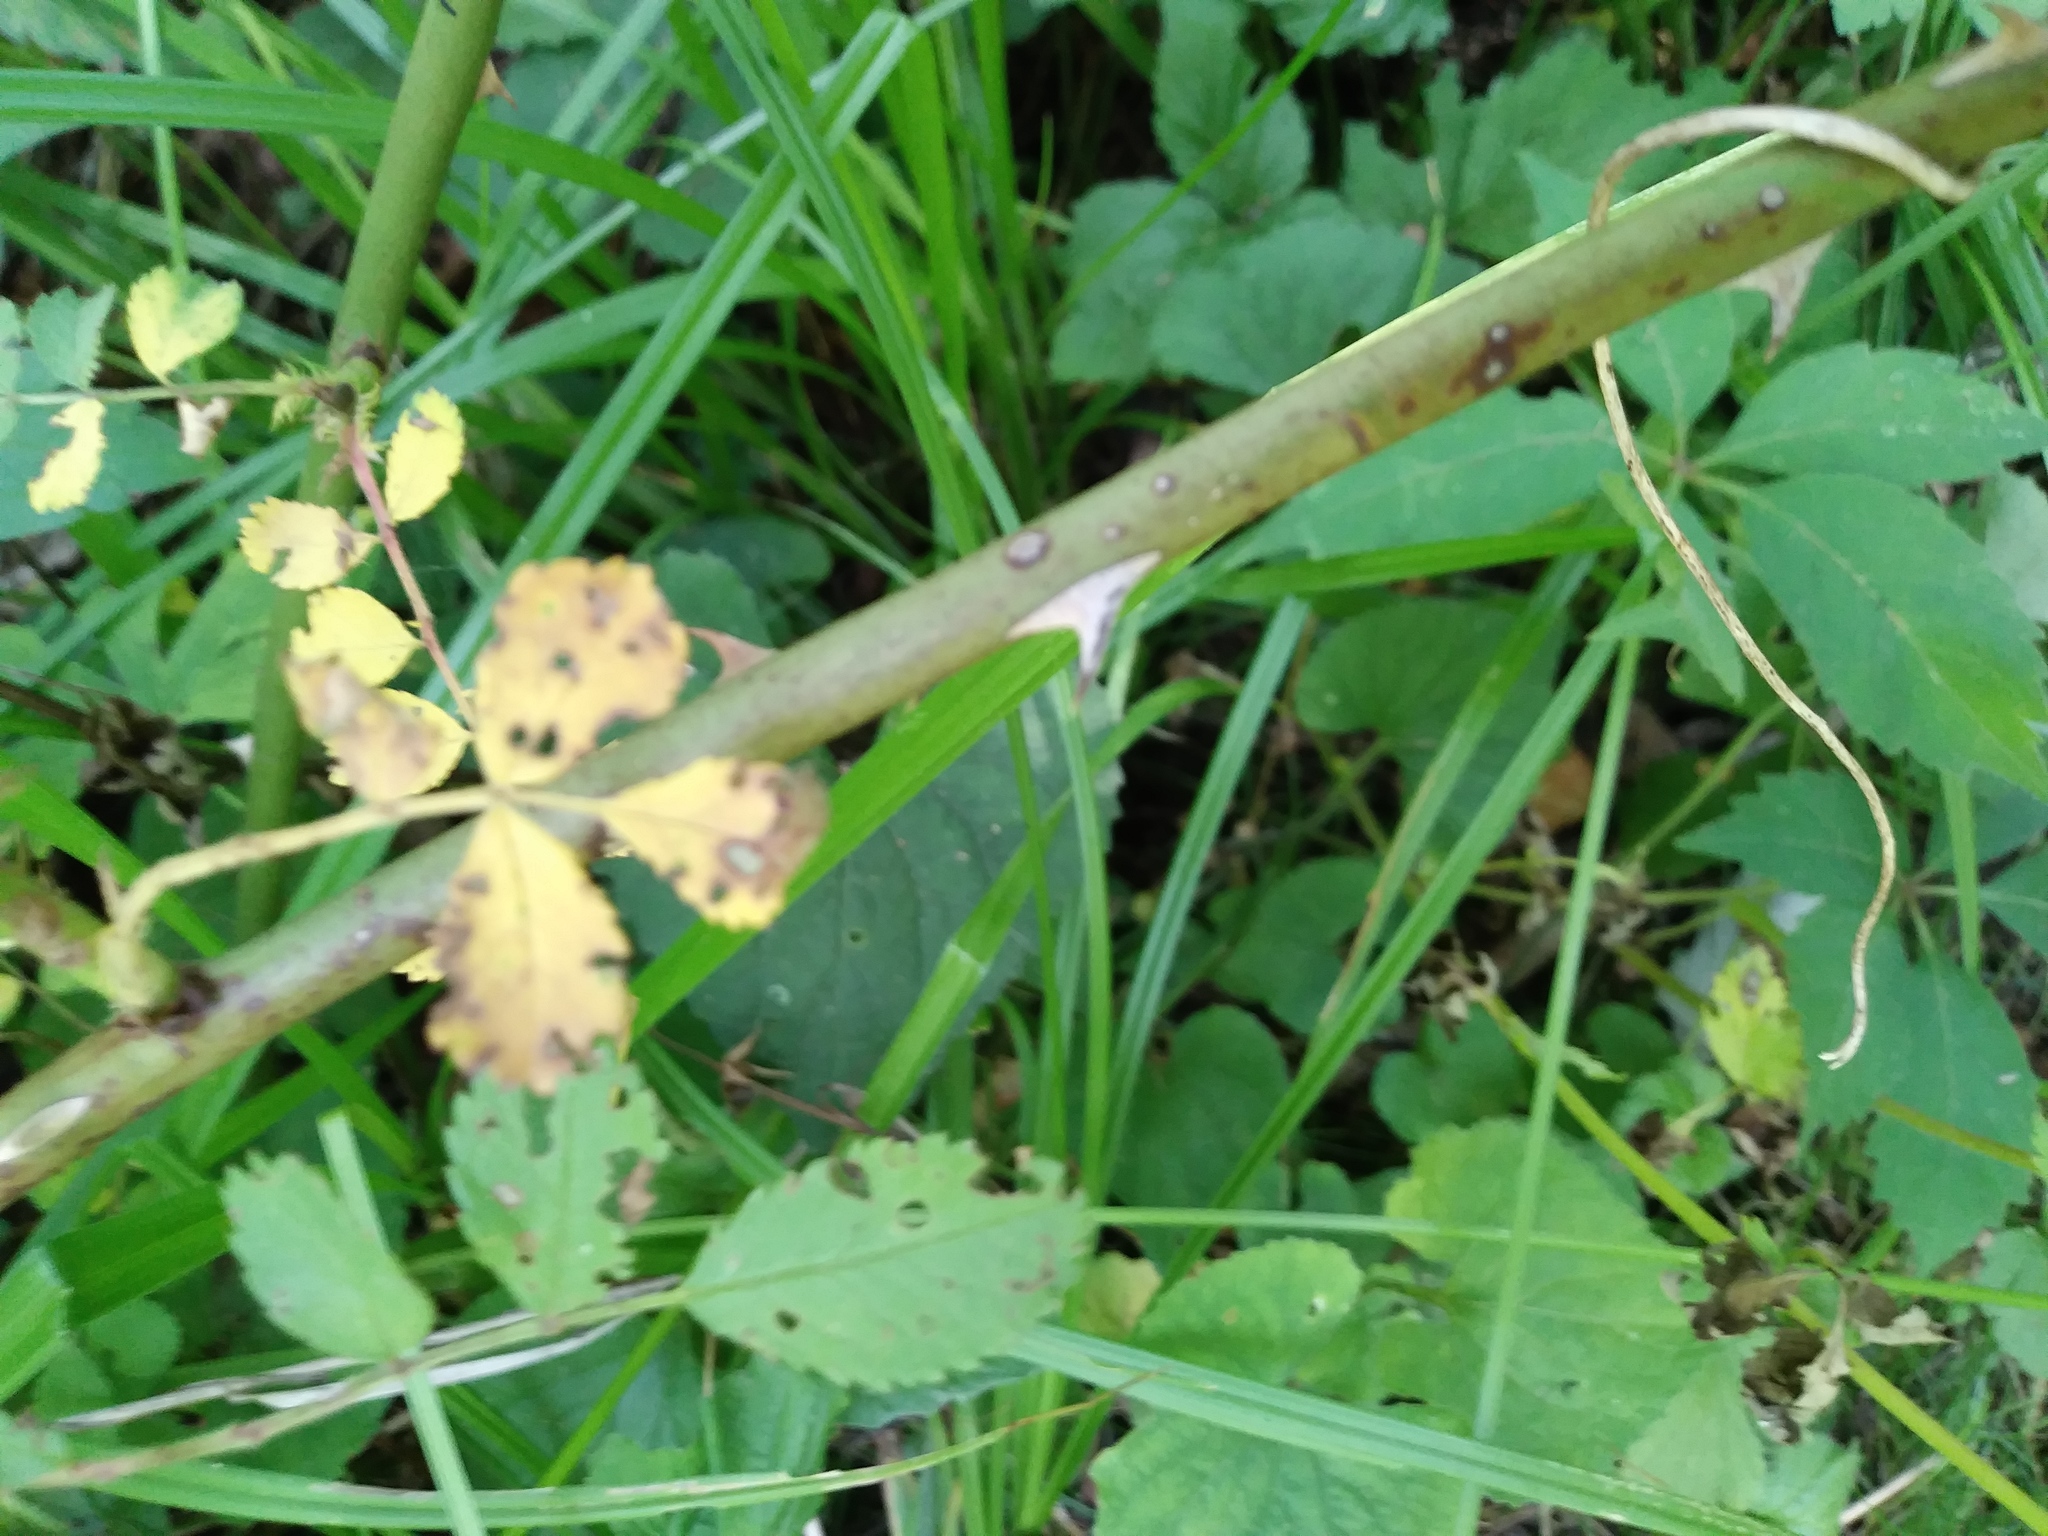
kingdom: Plantae
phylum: Tracheophyta
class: Magnoliopsida
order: Rosales
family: Rosaceae
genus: Rosa
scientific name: Rosa multiflora
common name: Multiflora rose
